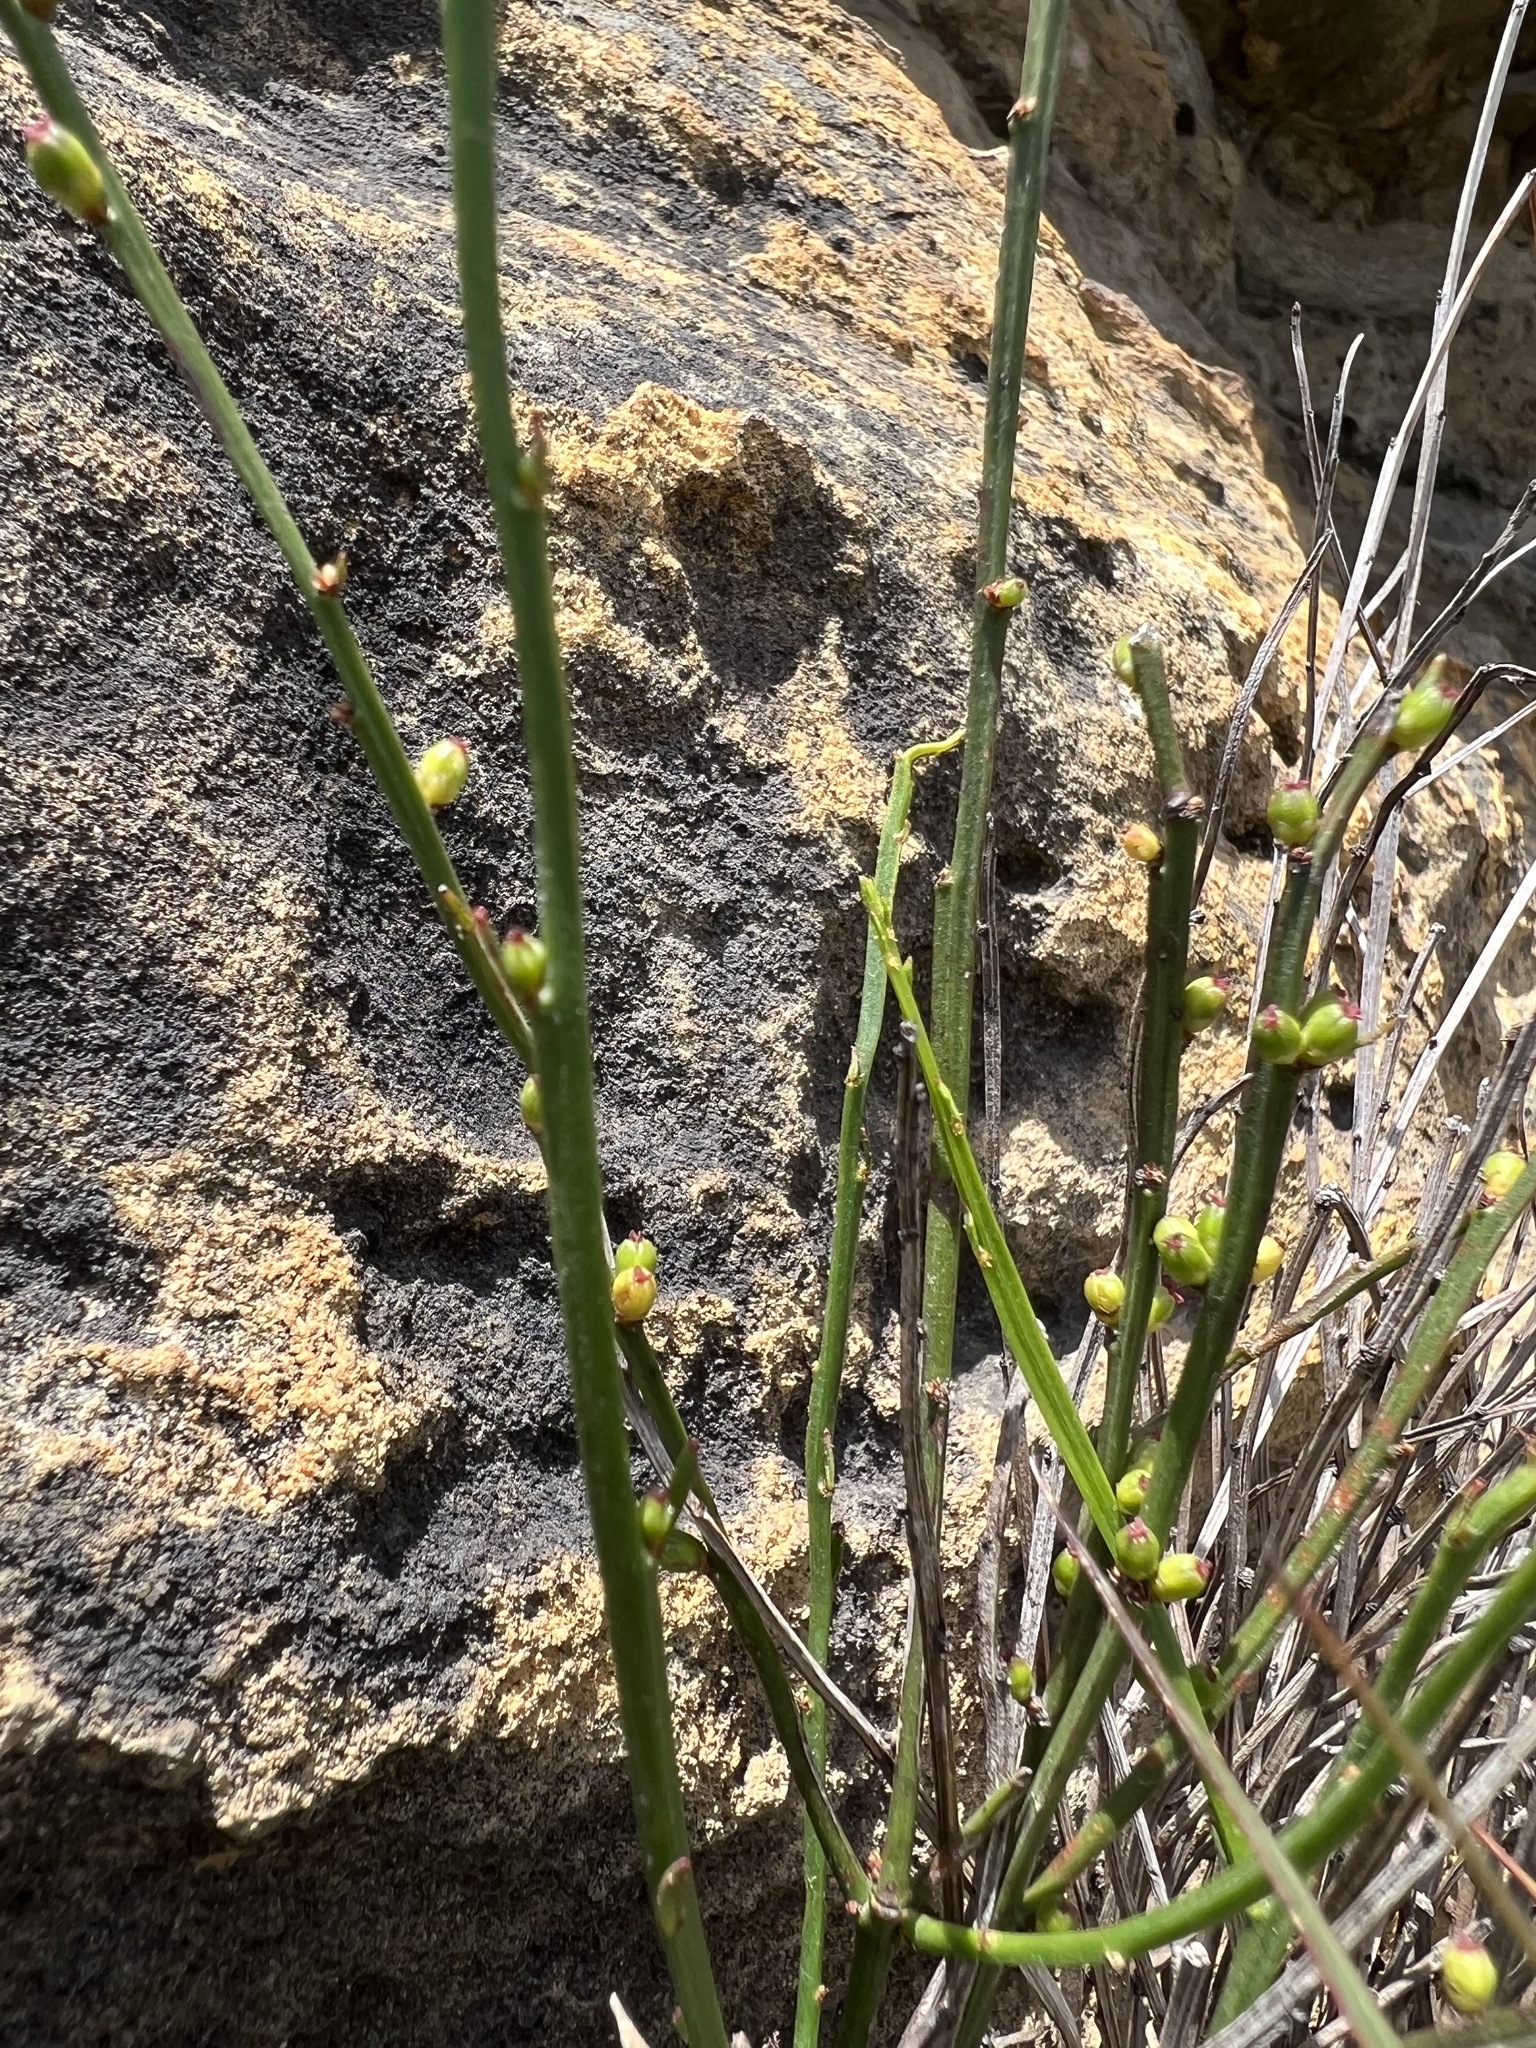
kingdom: Plantae
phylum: Tracheophyta
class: Magnoliopsida
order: Malpighiales
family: Euphorbiaceae
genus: Amperea
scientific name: Amperea xiphoclada
